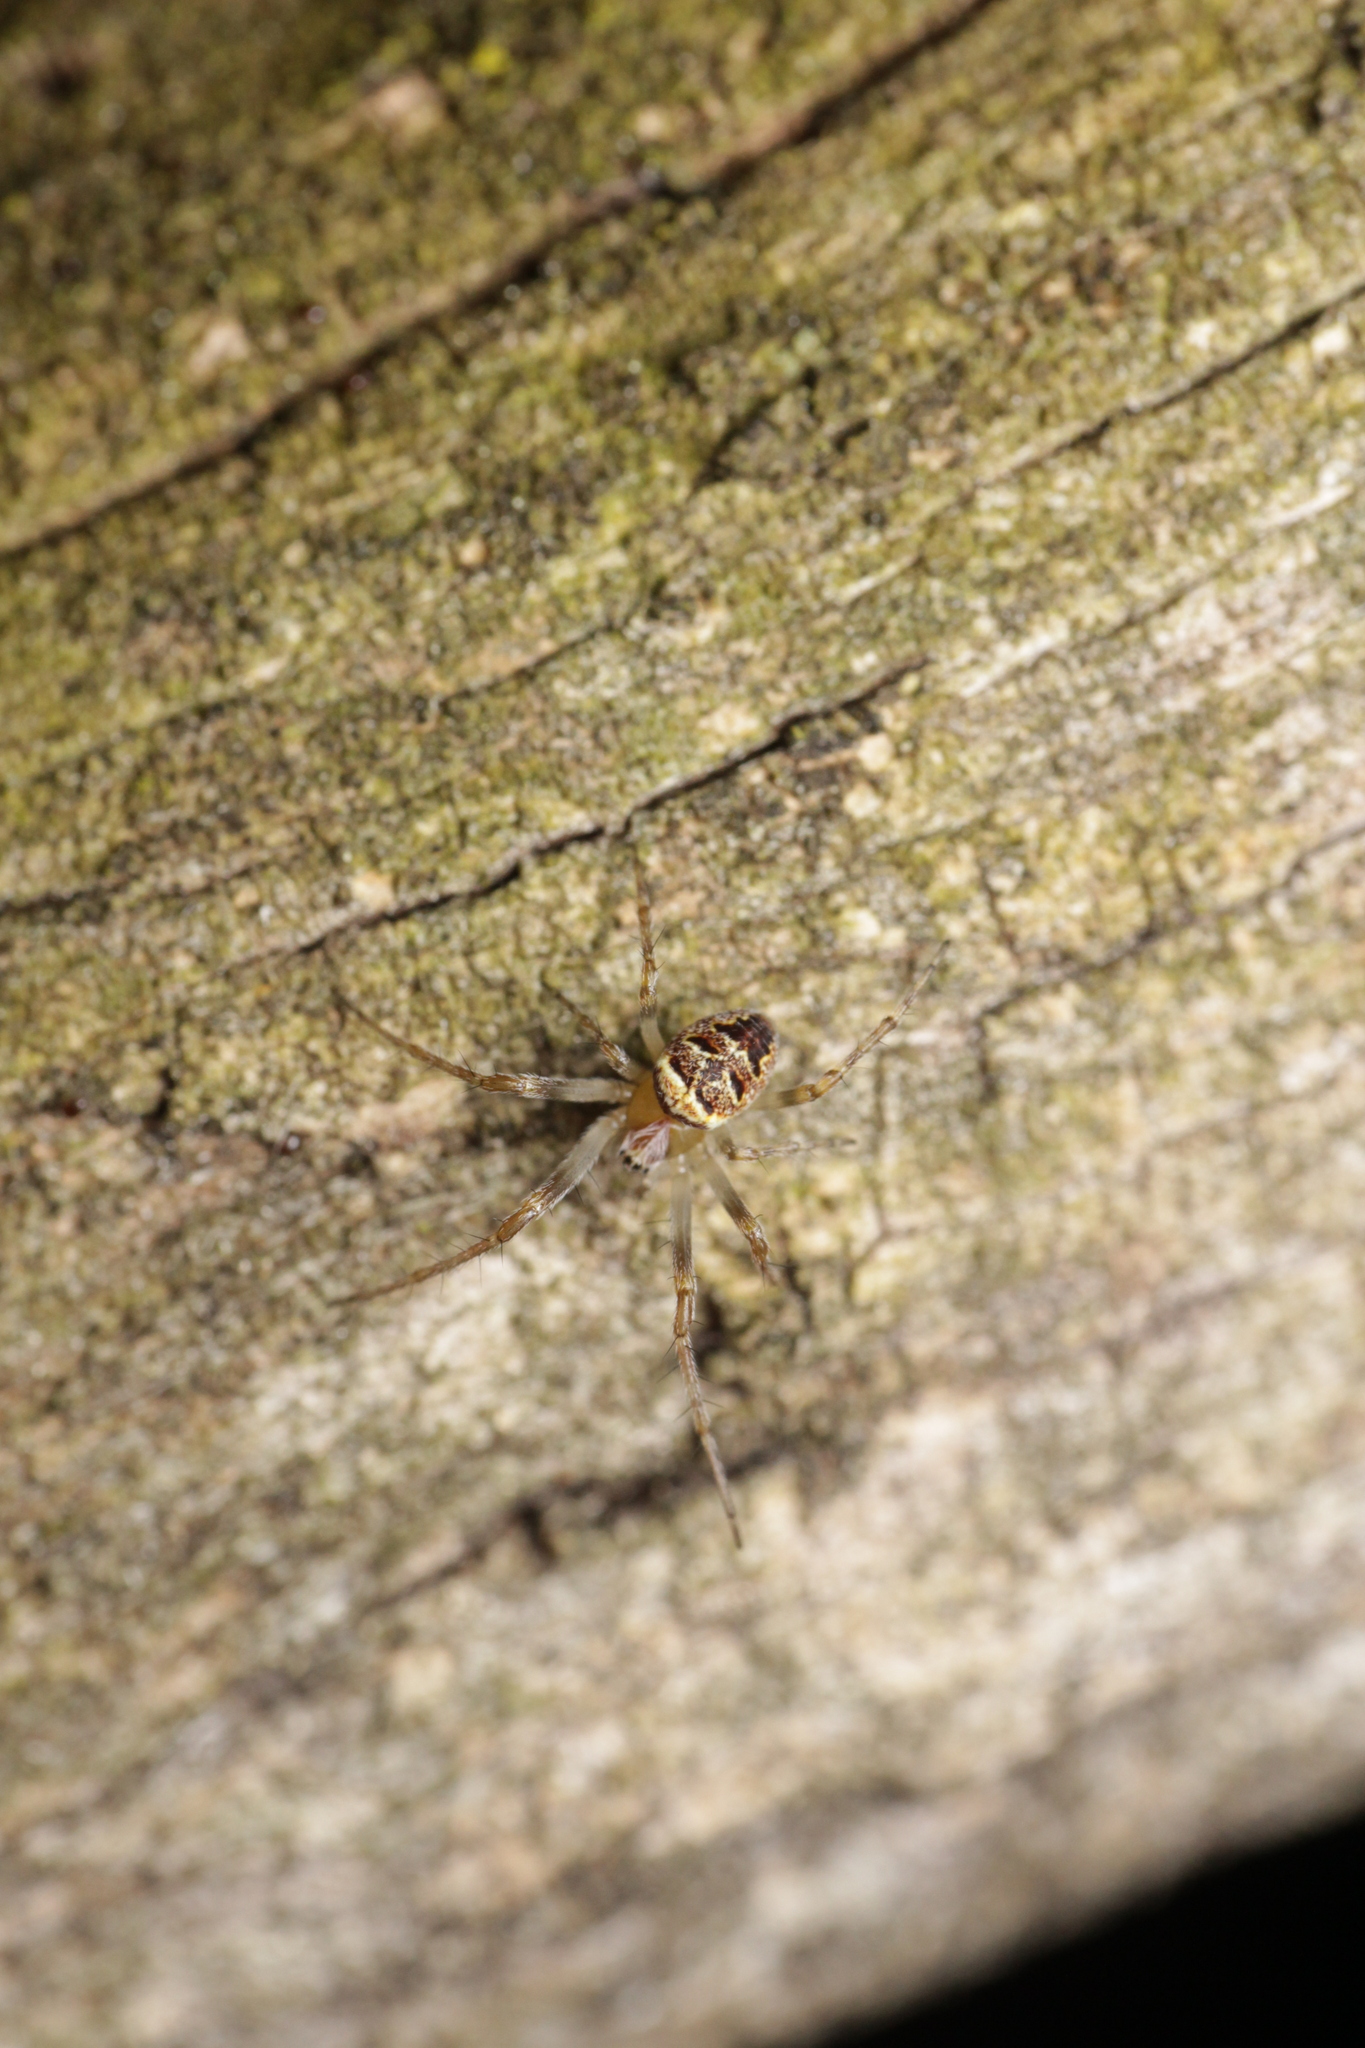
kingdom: Animalia
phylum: Arthropoda
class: Arachnida
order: Araneae
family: Araneidae
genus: Zilla
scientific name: Zilla diodia
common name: Zilla diodia
